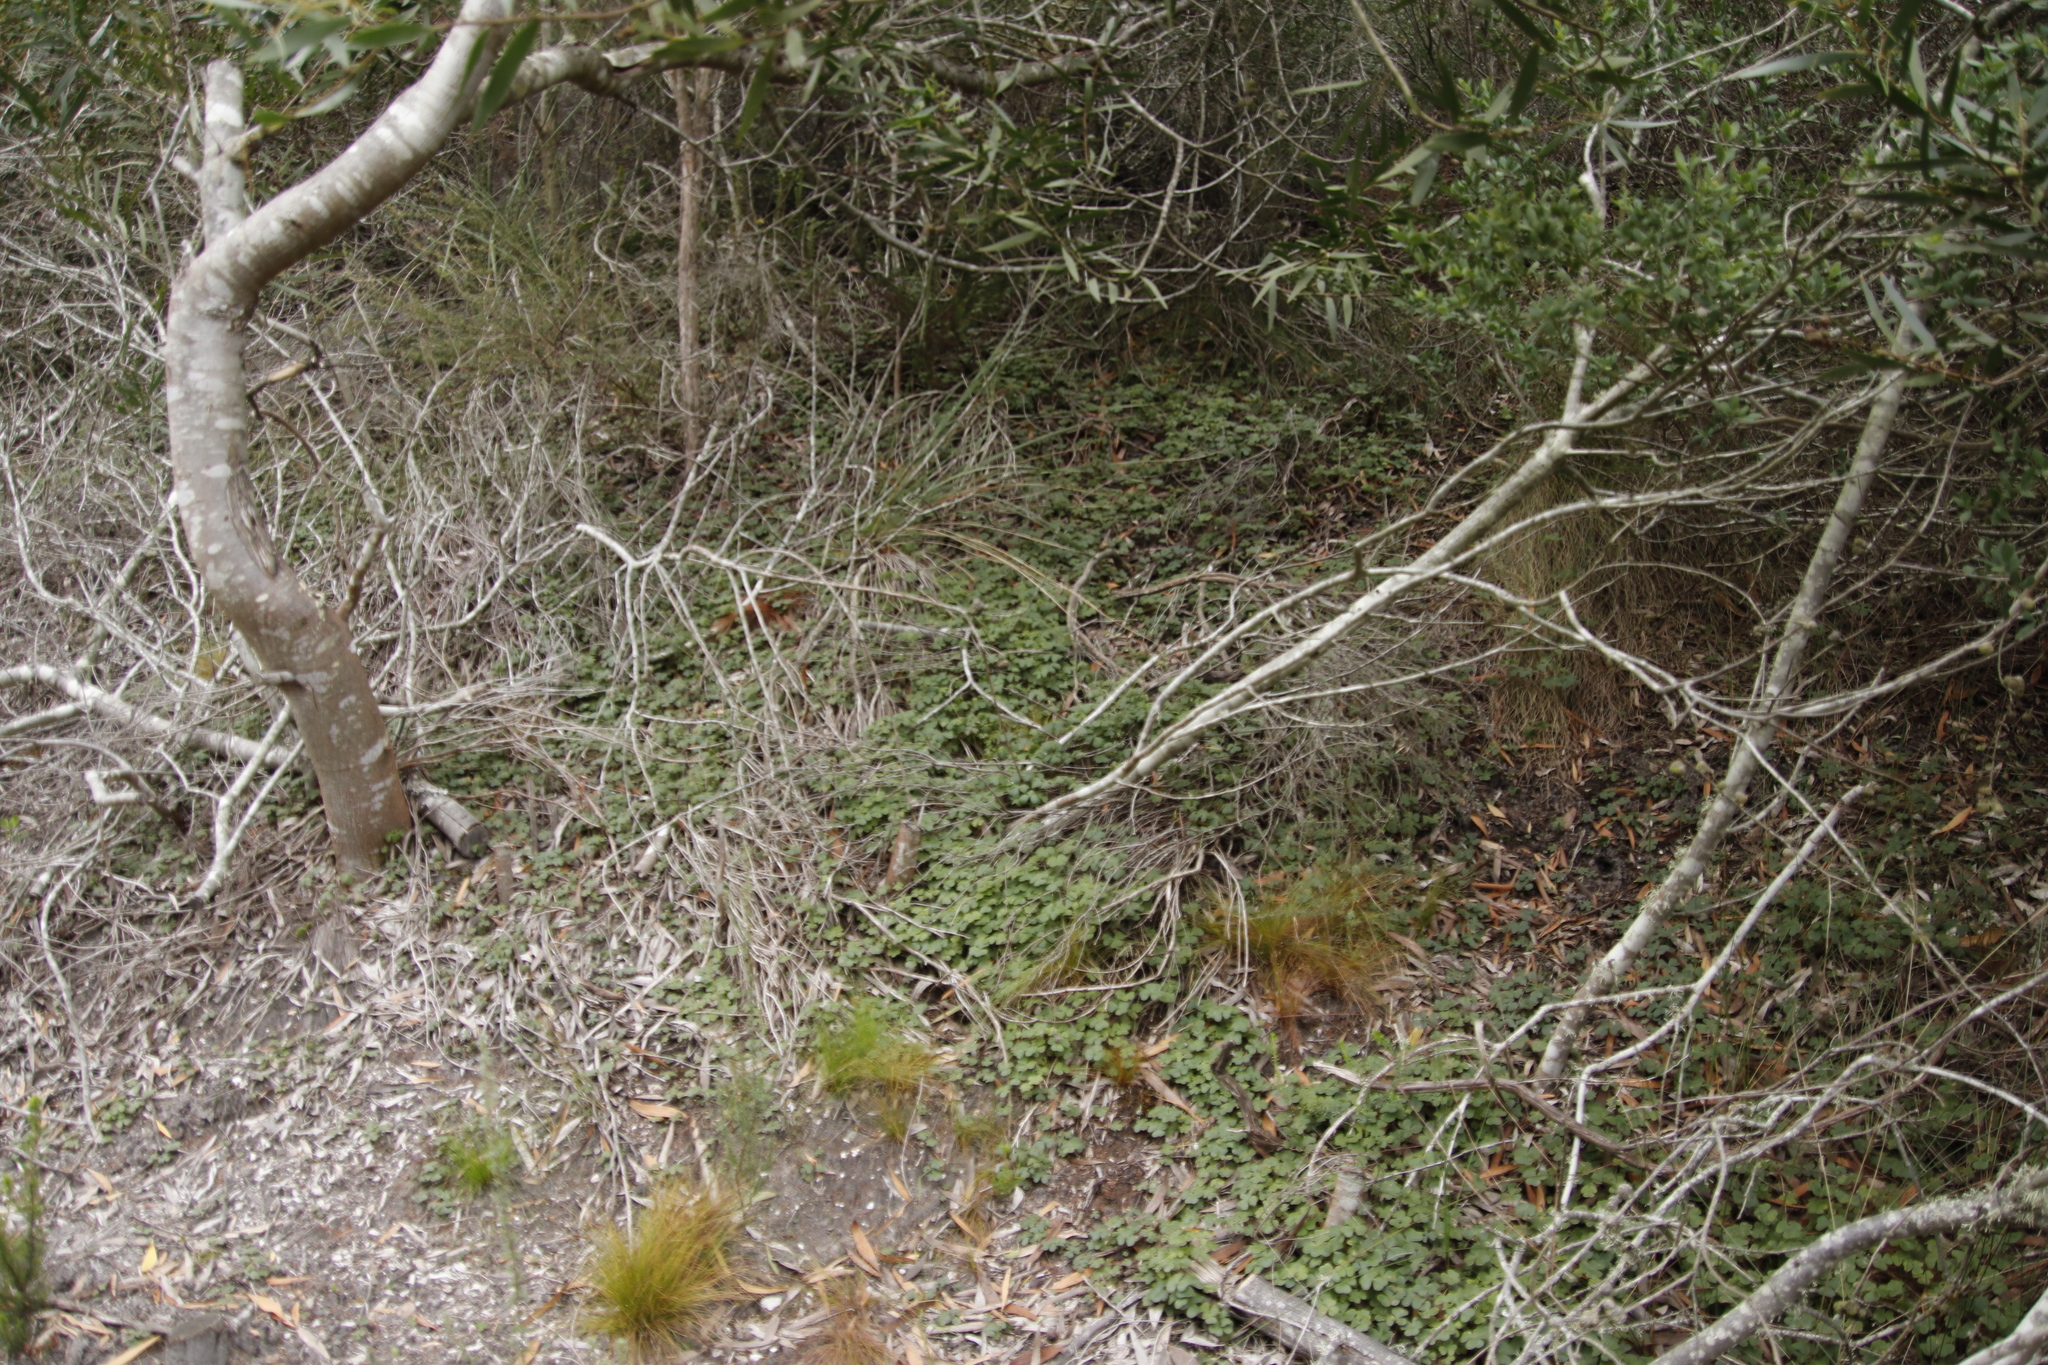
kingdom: Plantae
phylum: Tracheophyta
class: Magnoliopsida
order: Oxalidales
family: Oxalidaceae
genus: Oxalis
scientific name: Oxalis truncatula
